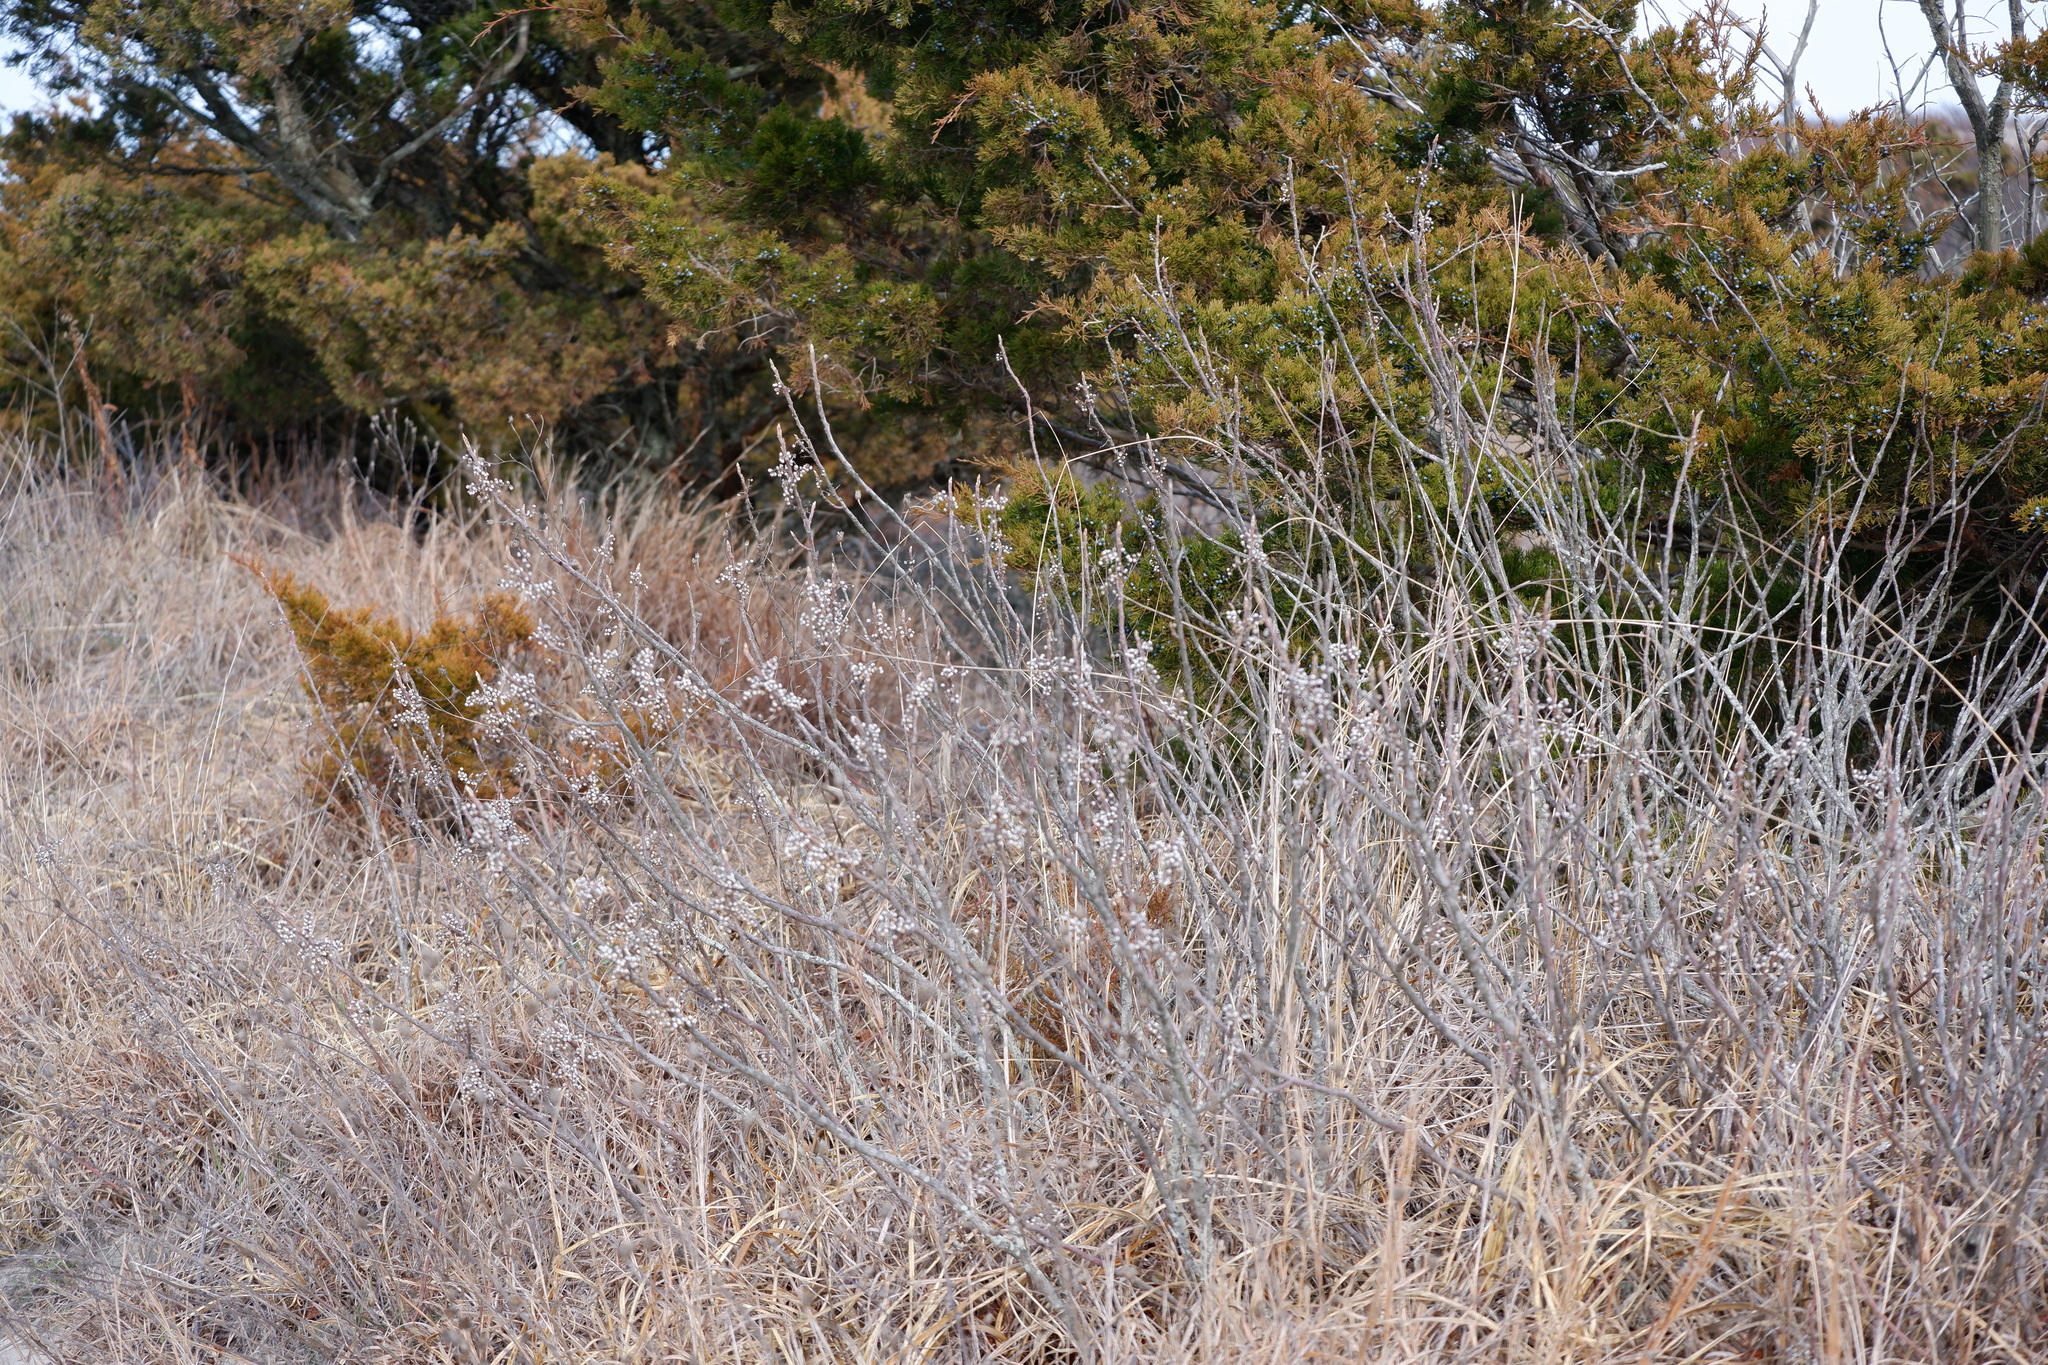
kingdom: Plantae
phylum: Tracheophyta
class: Magnoliopsida
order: Sapindales
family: Anacardiaceae
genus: Toxicodendron
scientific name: Toxicodendron radicans
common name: Poison ivy
